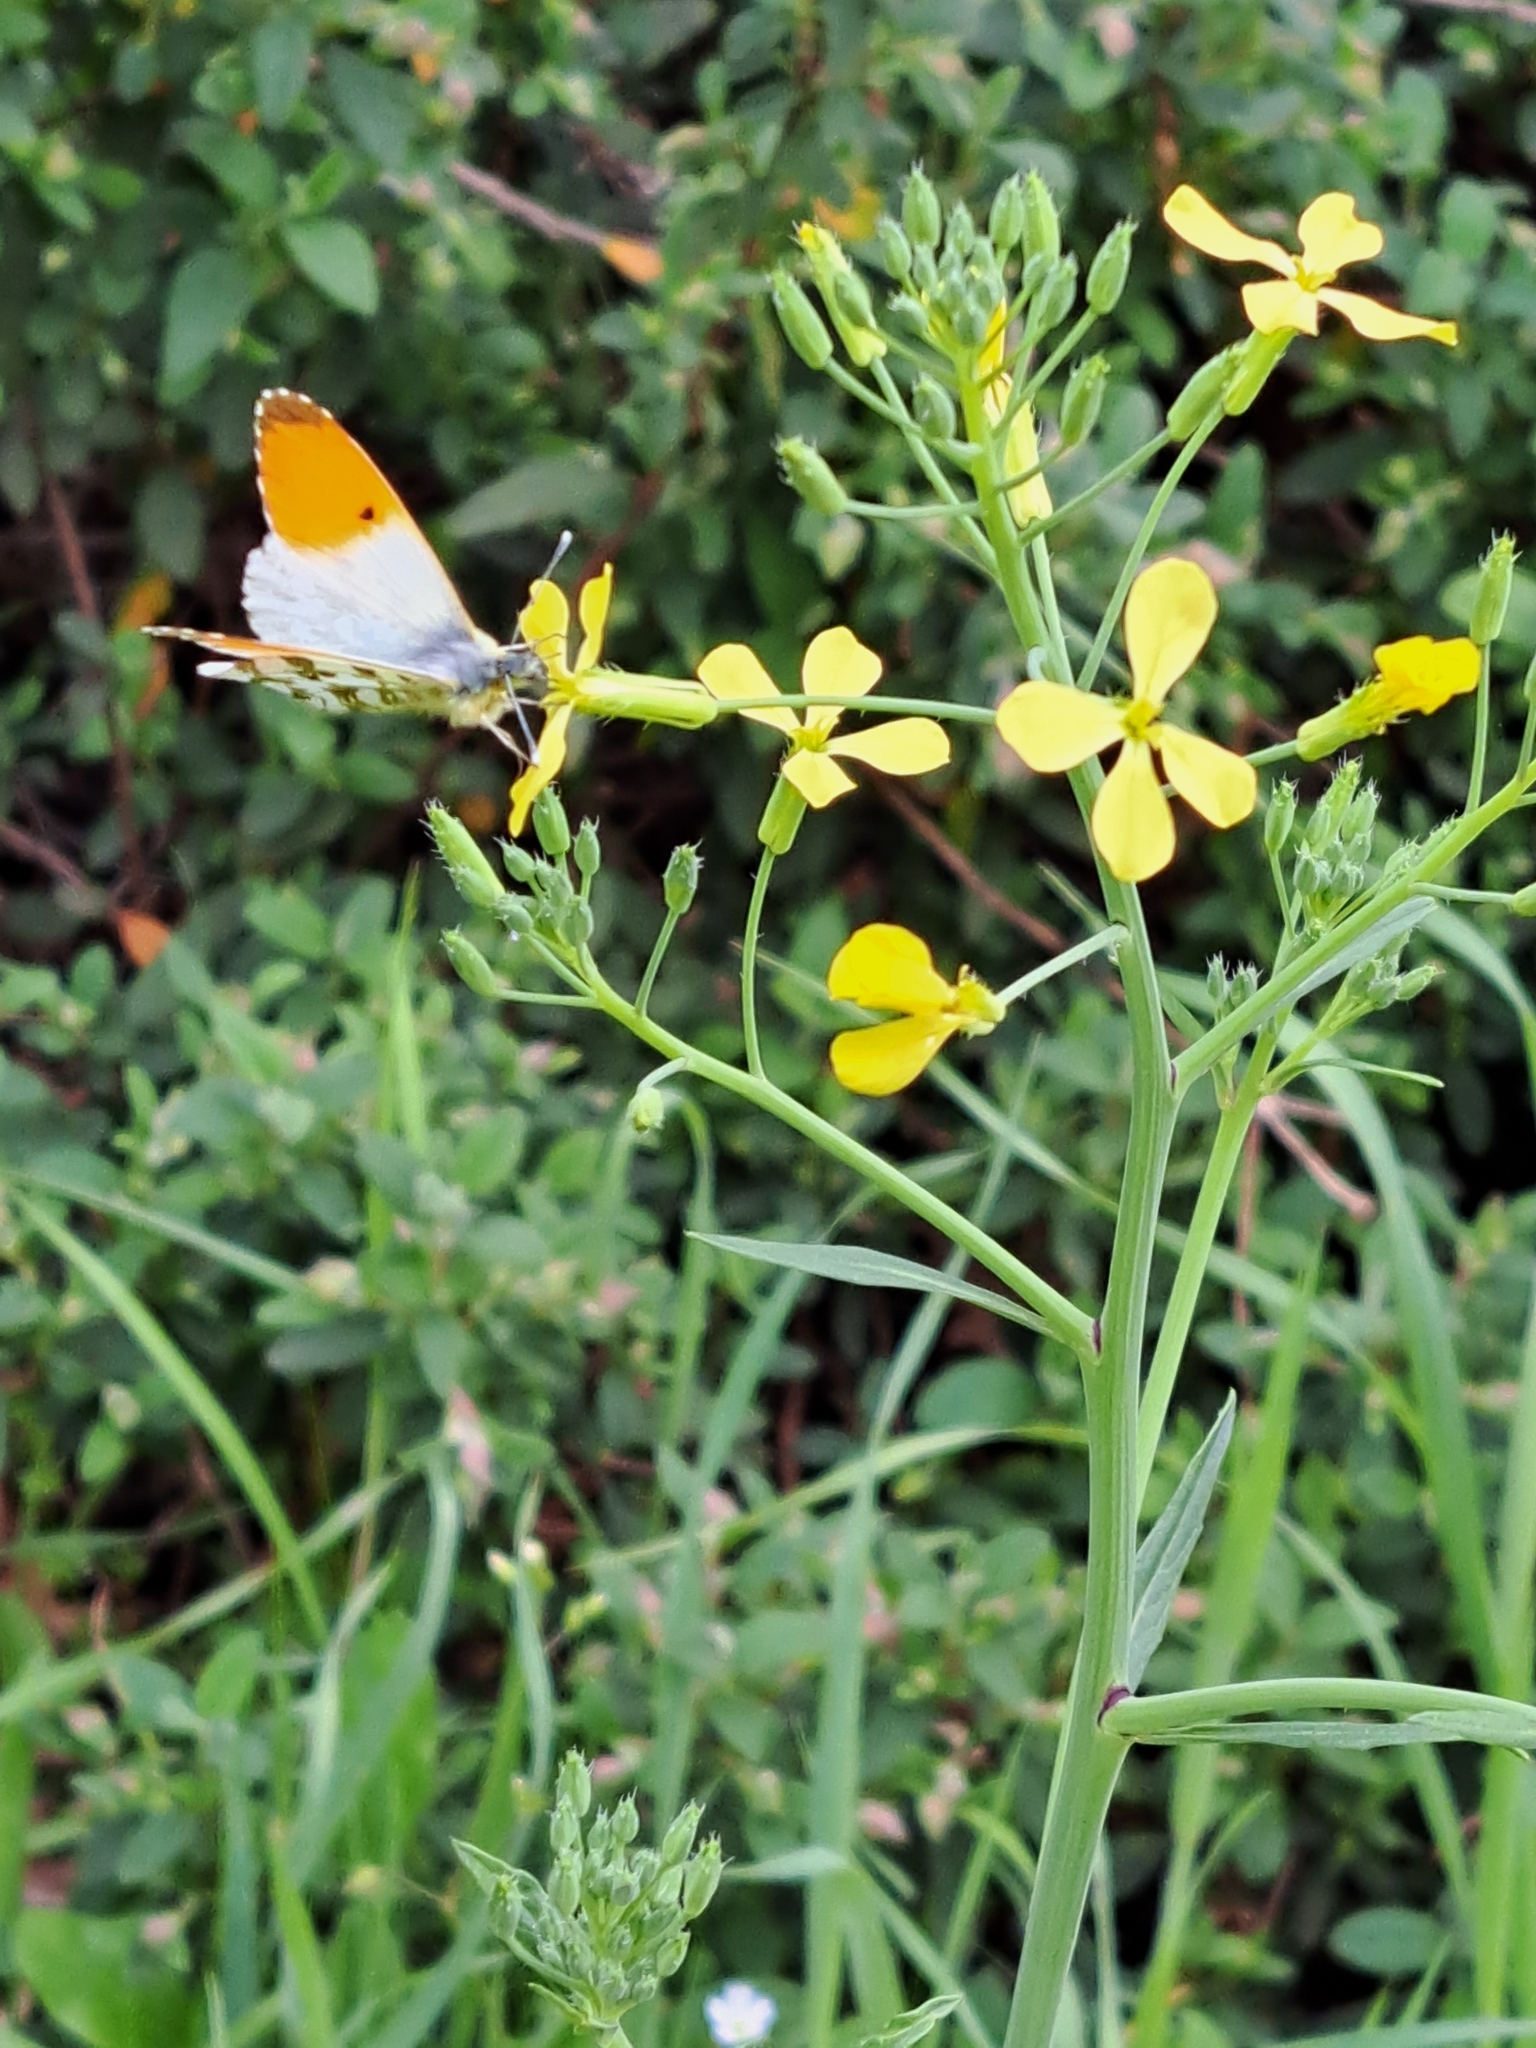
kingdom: Animalia
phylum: Arthropoda
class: Insecta
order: Lepidoptera
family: Pieridae
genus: Anthocharis
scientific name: Anthocharis cardamines
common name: Orange-tip
